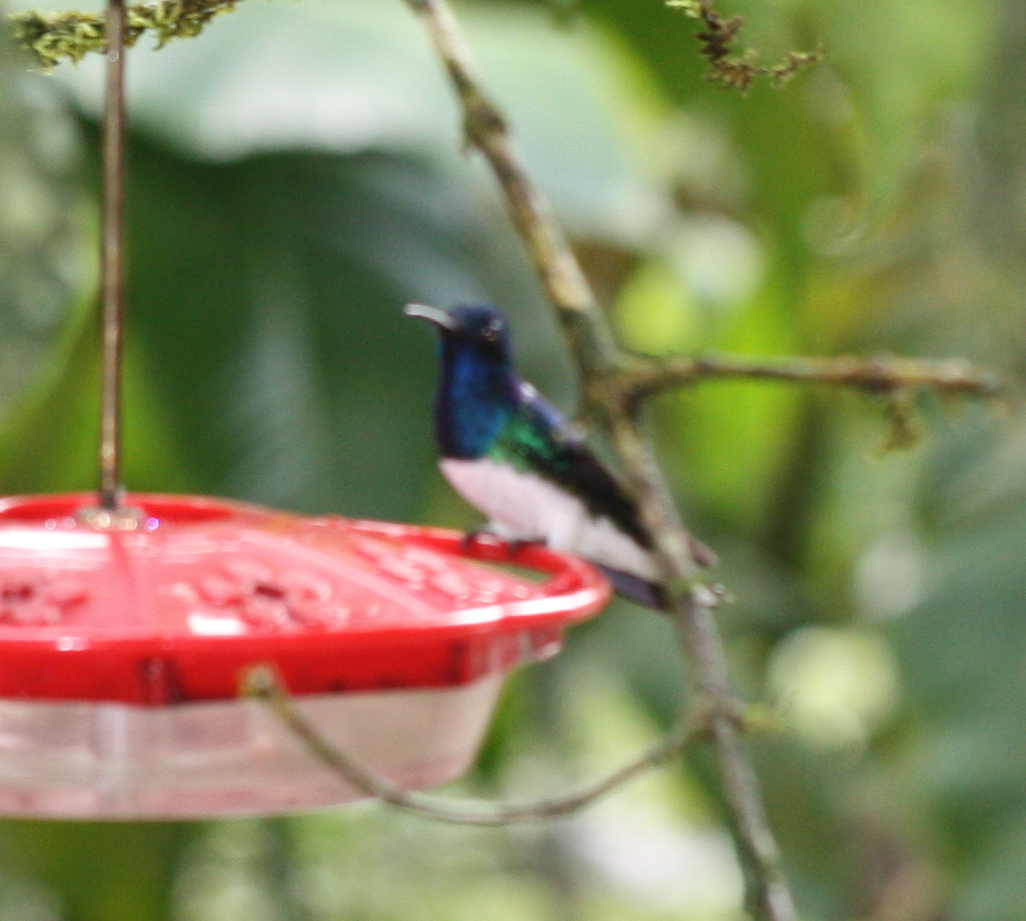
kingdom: Animalia
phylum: Chordata
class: Aves
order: Apodiformes
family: Trochilidae
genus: Florisuga
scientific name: Florisuga mellivora
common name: White-necked jacobin
